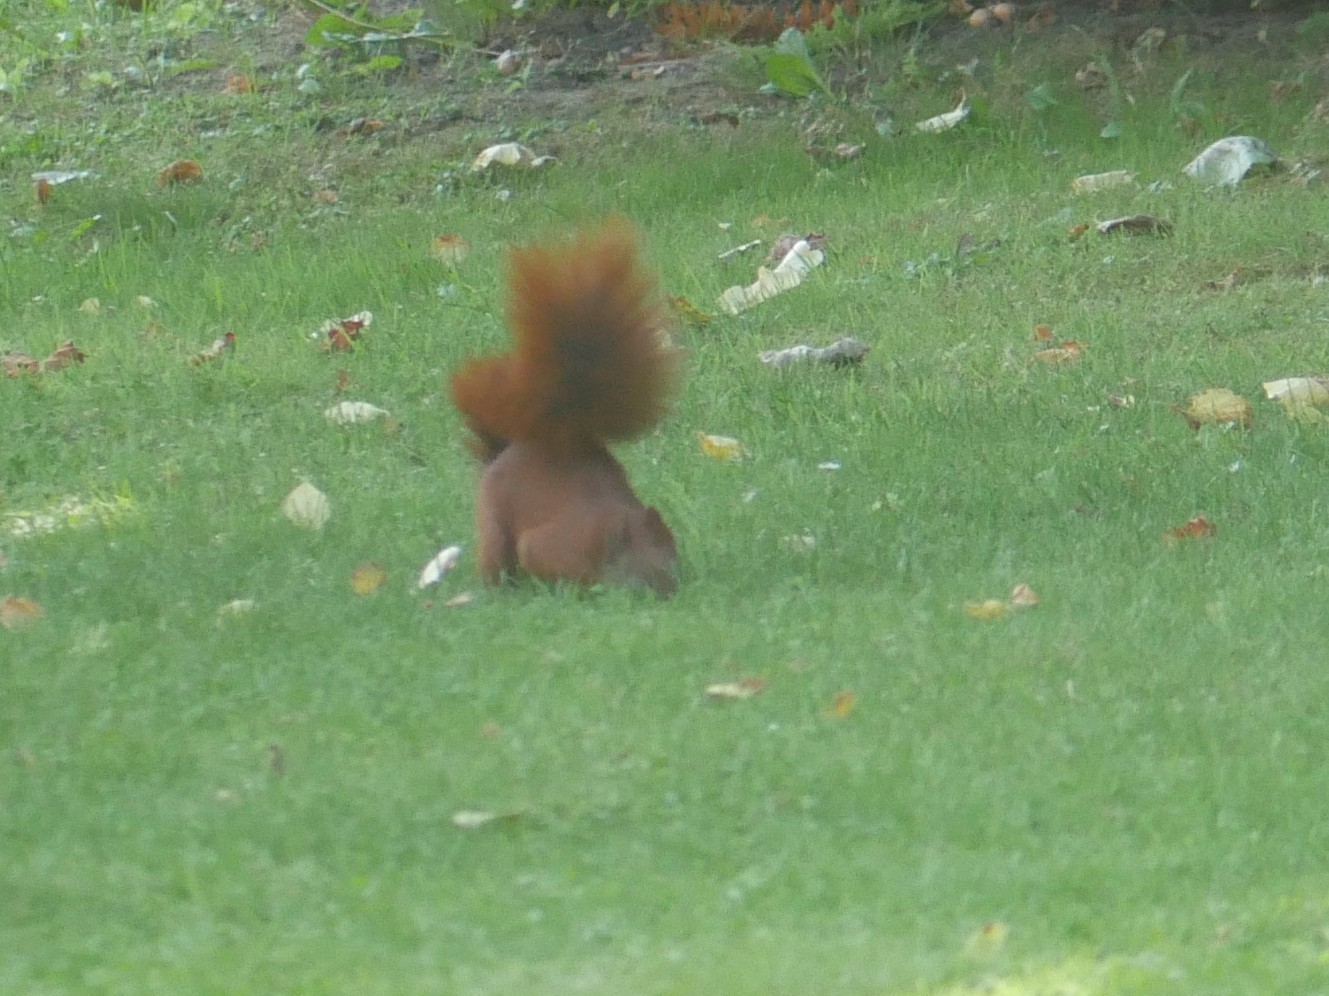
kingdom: Animalia
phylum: Chordata
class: Mammalia
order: Rodentia
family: Sciuridae
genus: Sciurus
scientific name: Sciurus vulgaris
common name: Eurasian red squirrel
